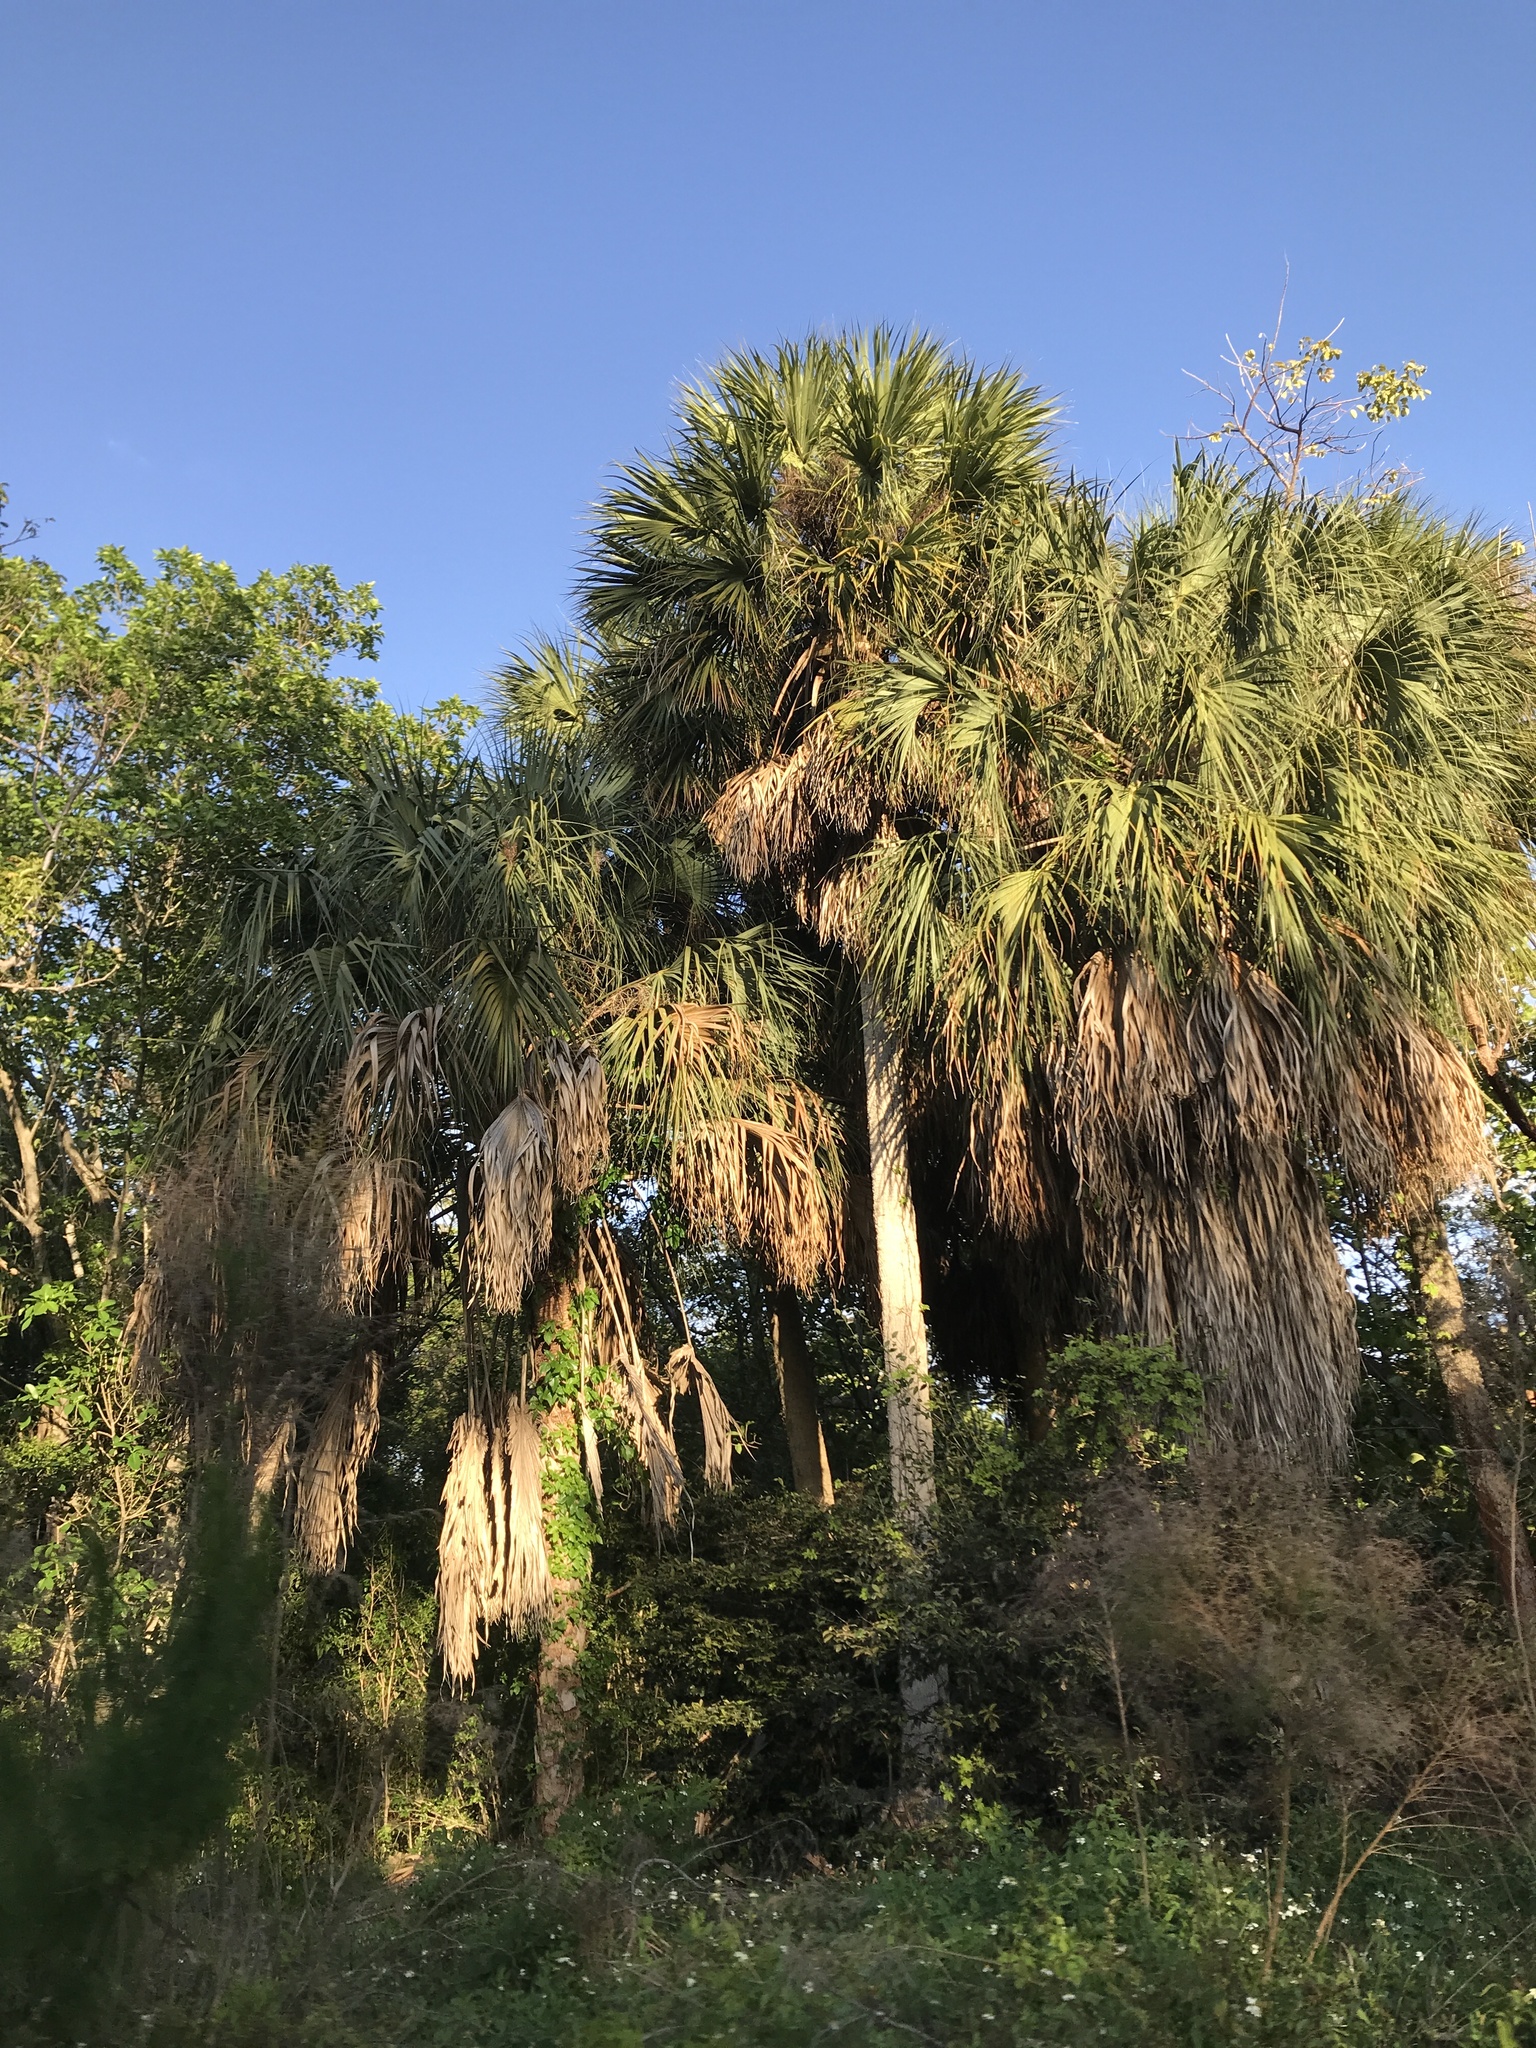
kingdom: Plantae
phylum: Tracheophyta
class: Liliopsida
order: Arecales
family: Arecaceae
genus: Sabal
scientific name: Sabal palmetto
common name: Blue palmetto
